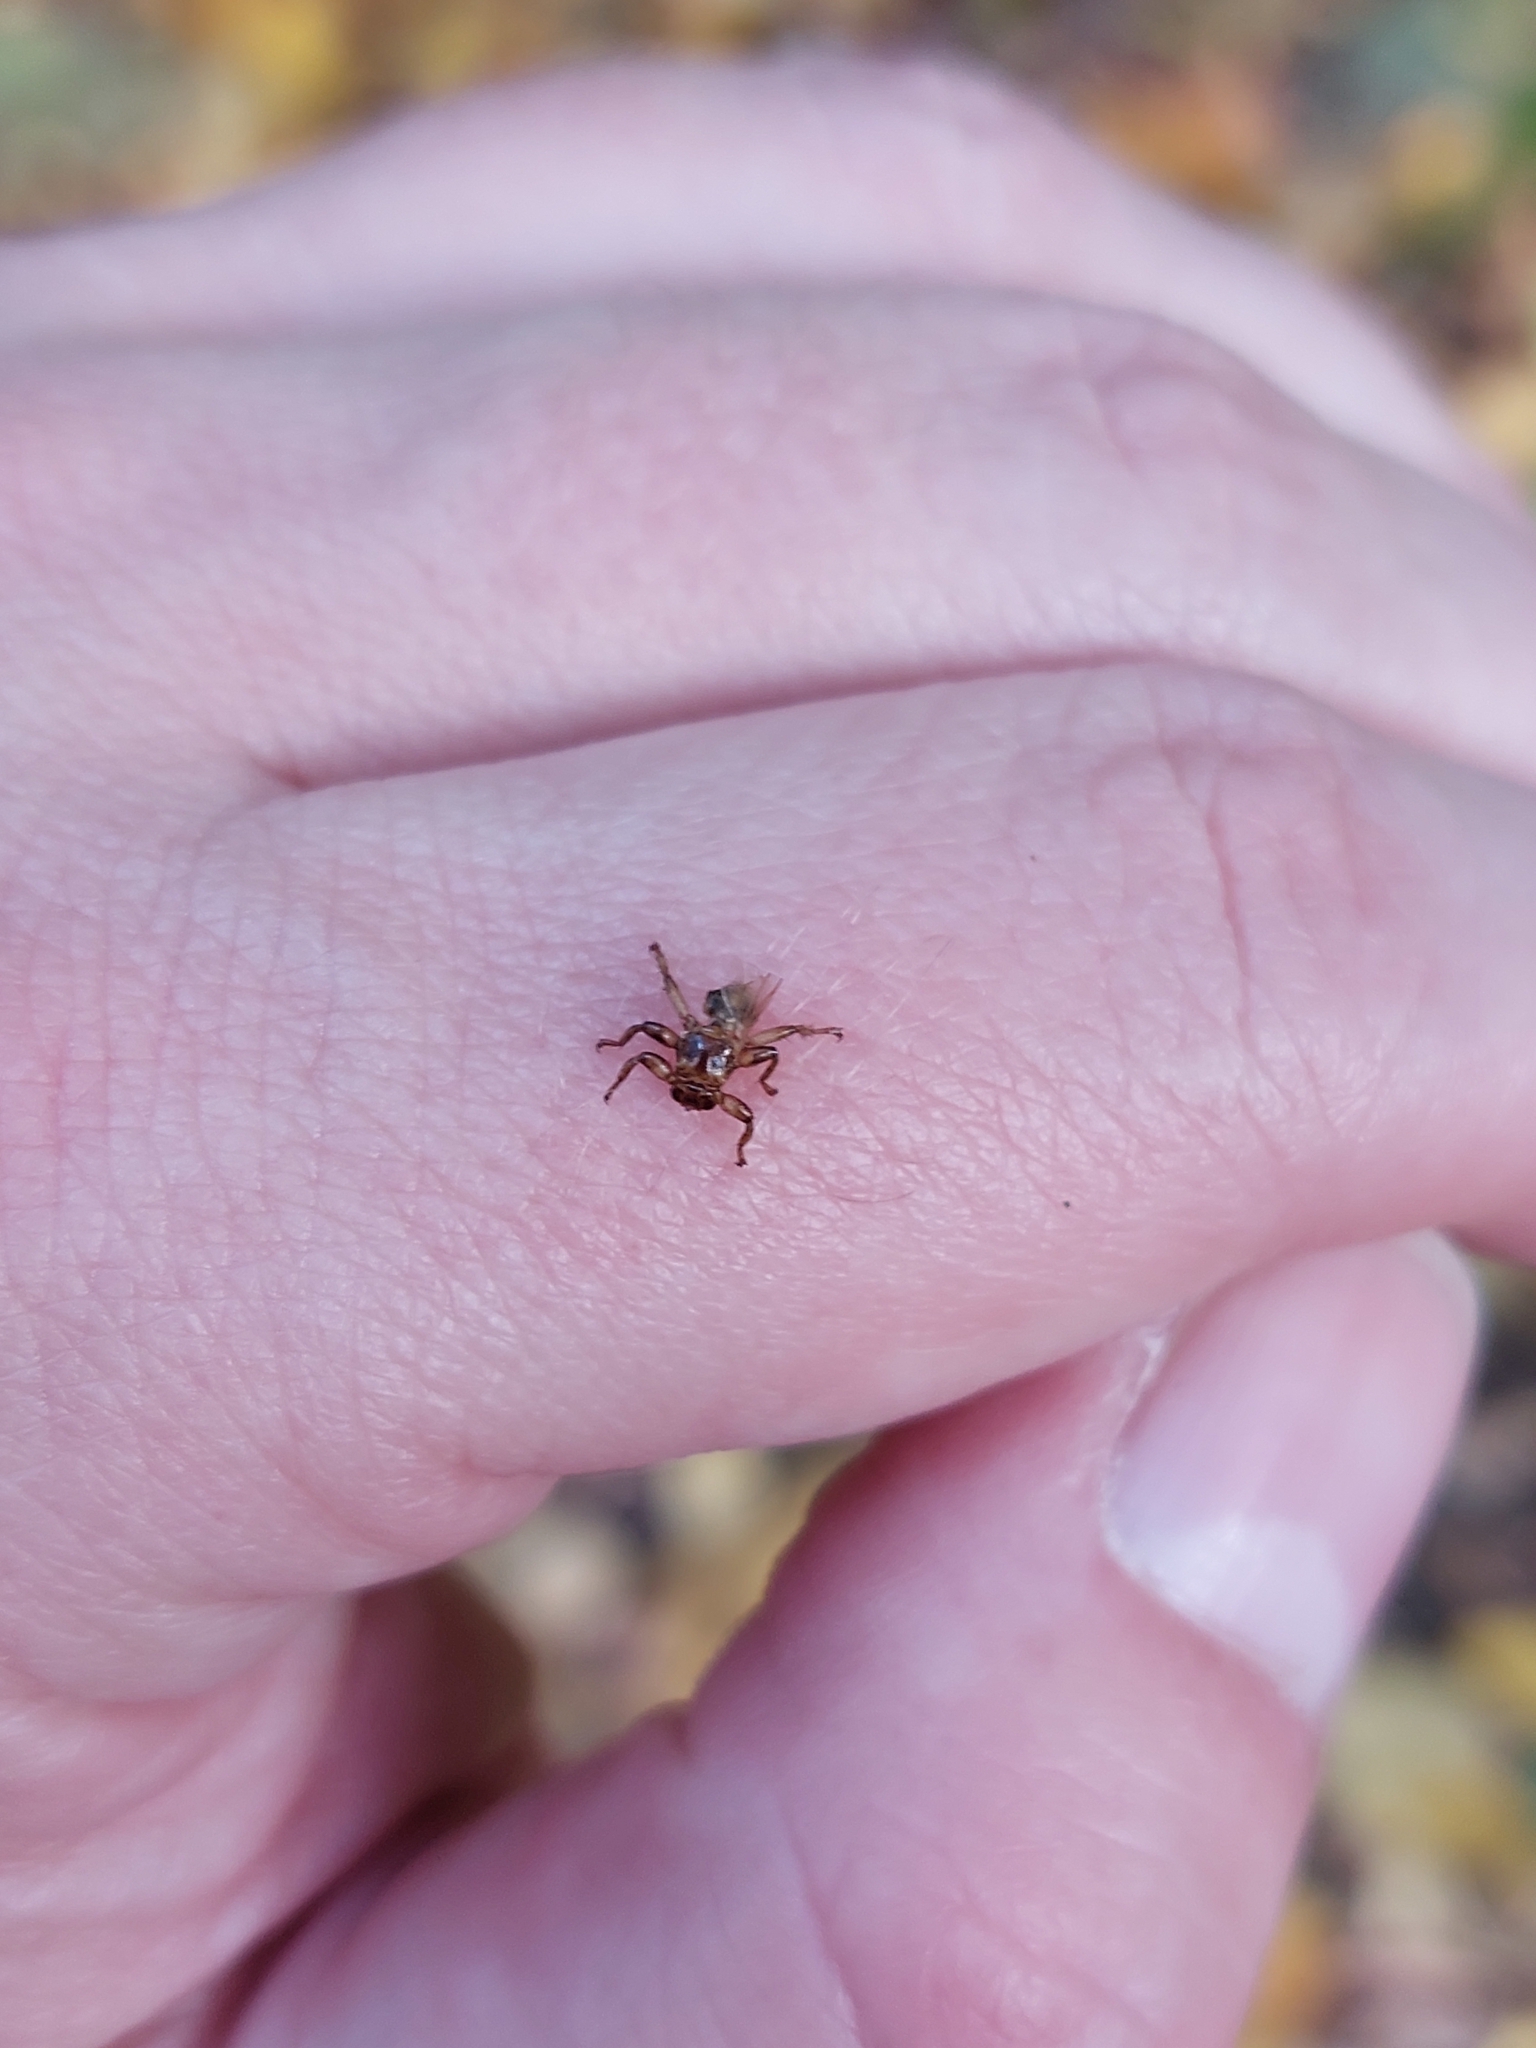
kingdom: Animalia
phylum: Arthropoda
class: Insecta
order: Diptera
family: Hippoboscidae
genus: Lipoptena
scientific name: Lipoptena cervi
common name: Deer ked
